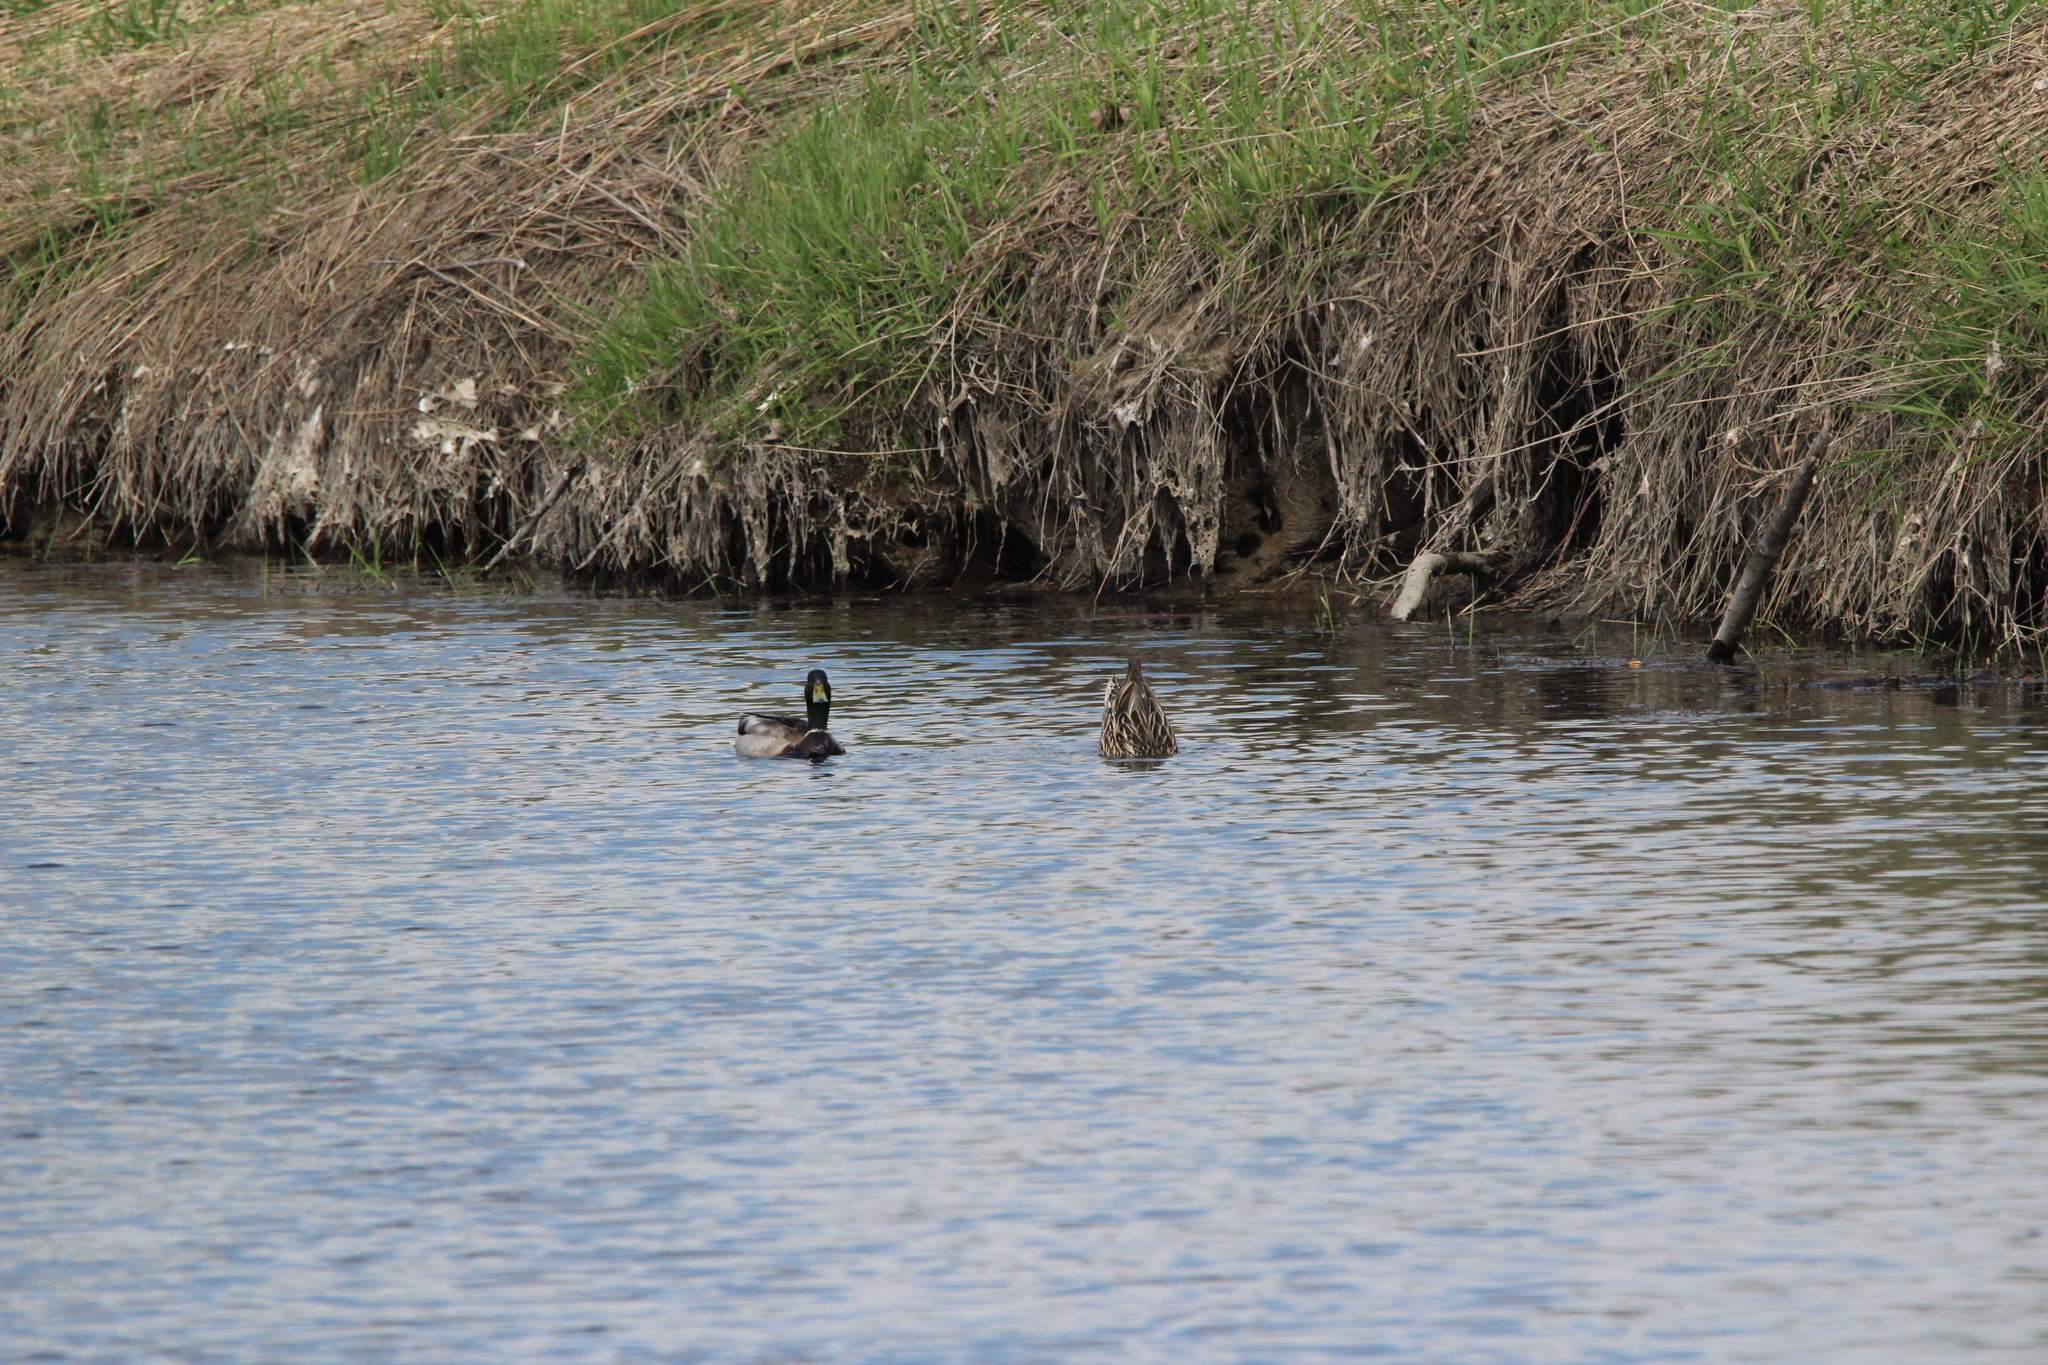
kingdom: Animalia
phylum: Chordata
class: Aves
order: Anseriformes
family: Anatidae
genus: Anas
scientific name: Anas platyrhynchos
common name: Mallard
